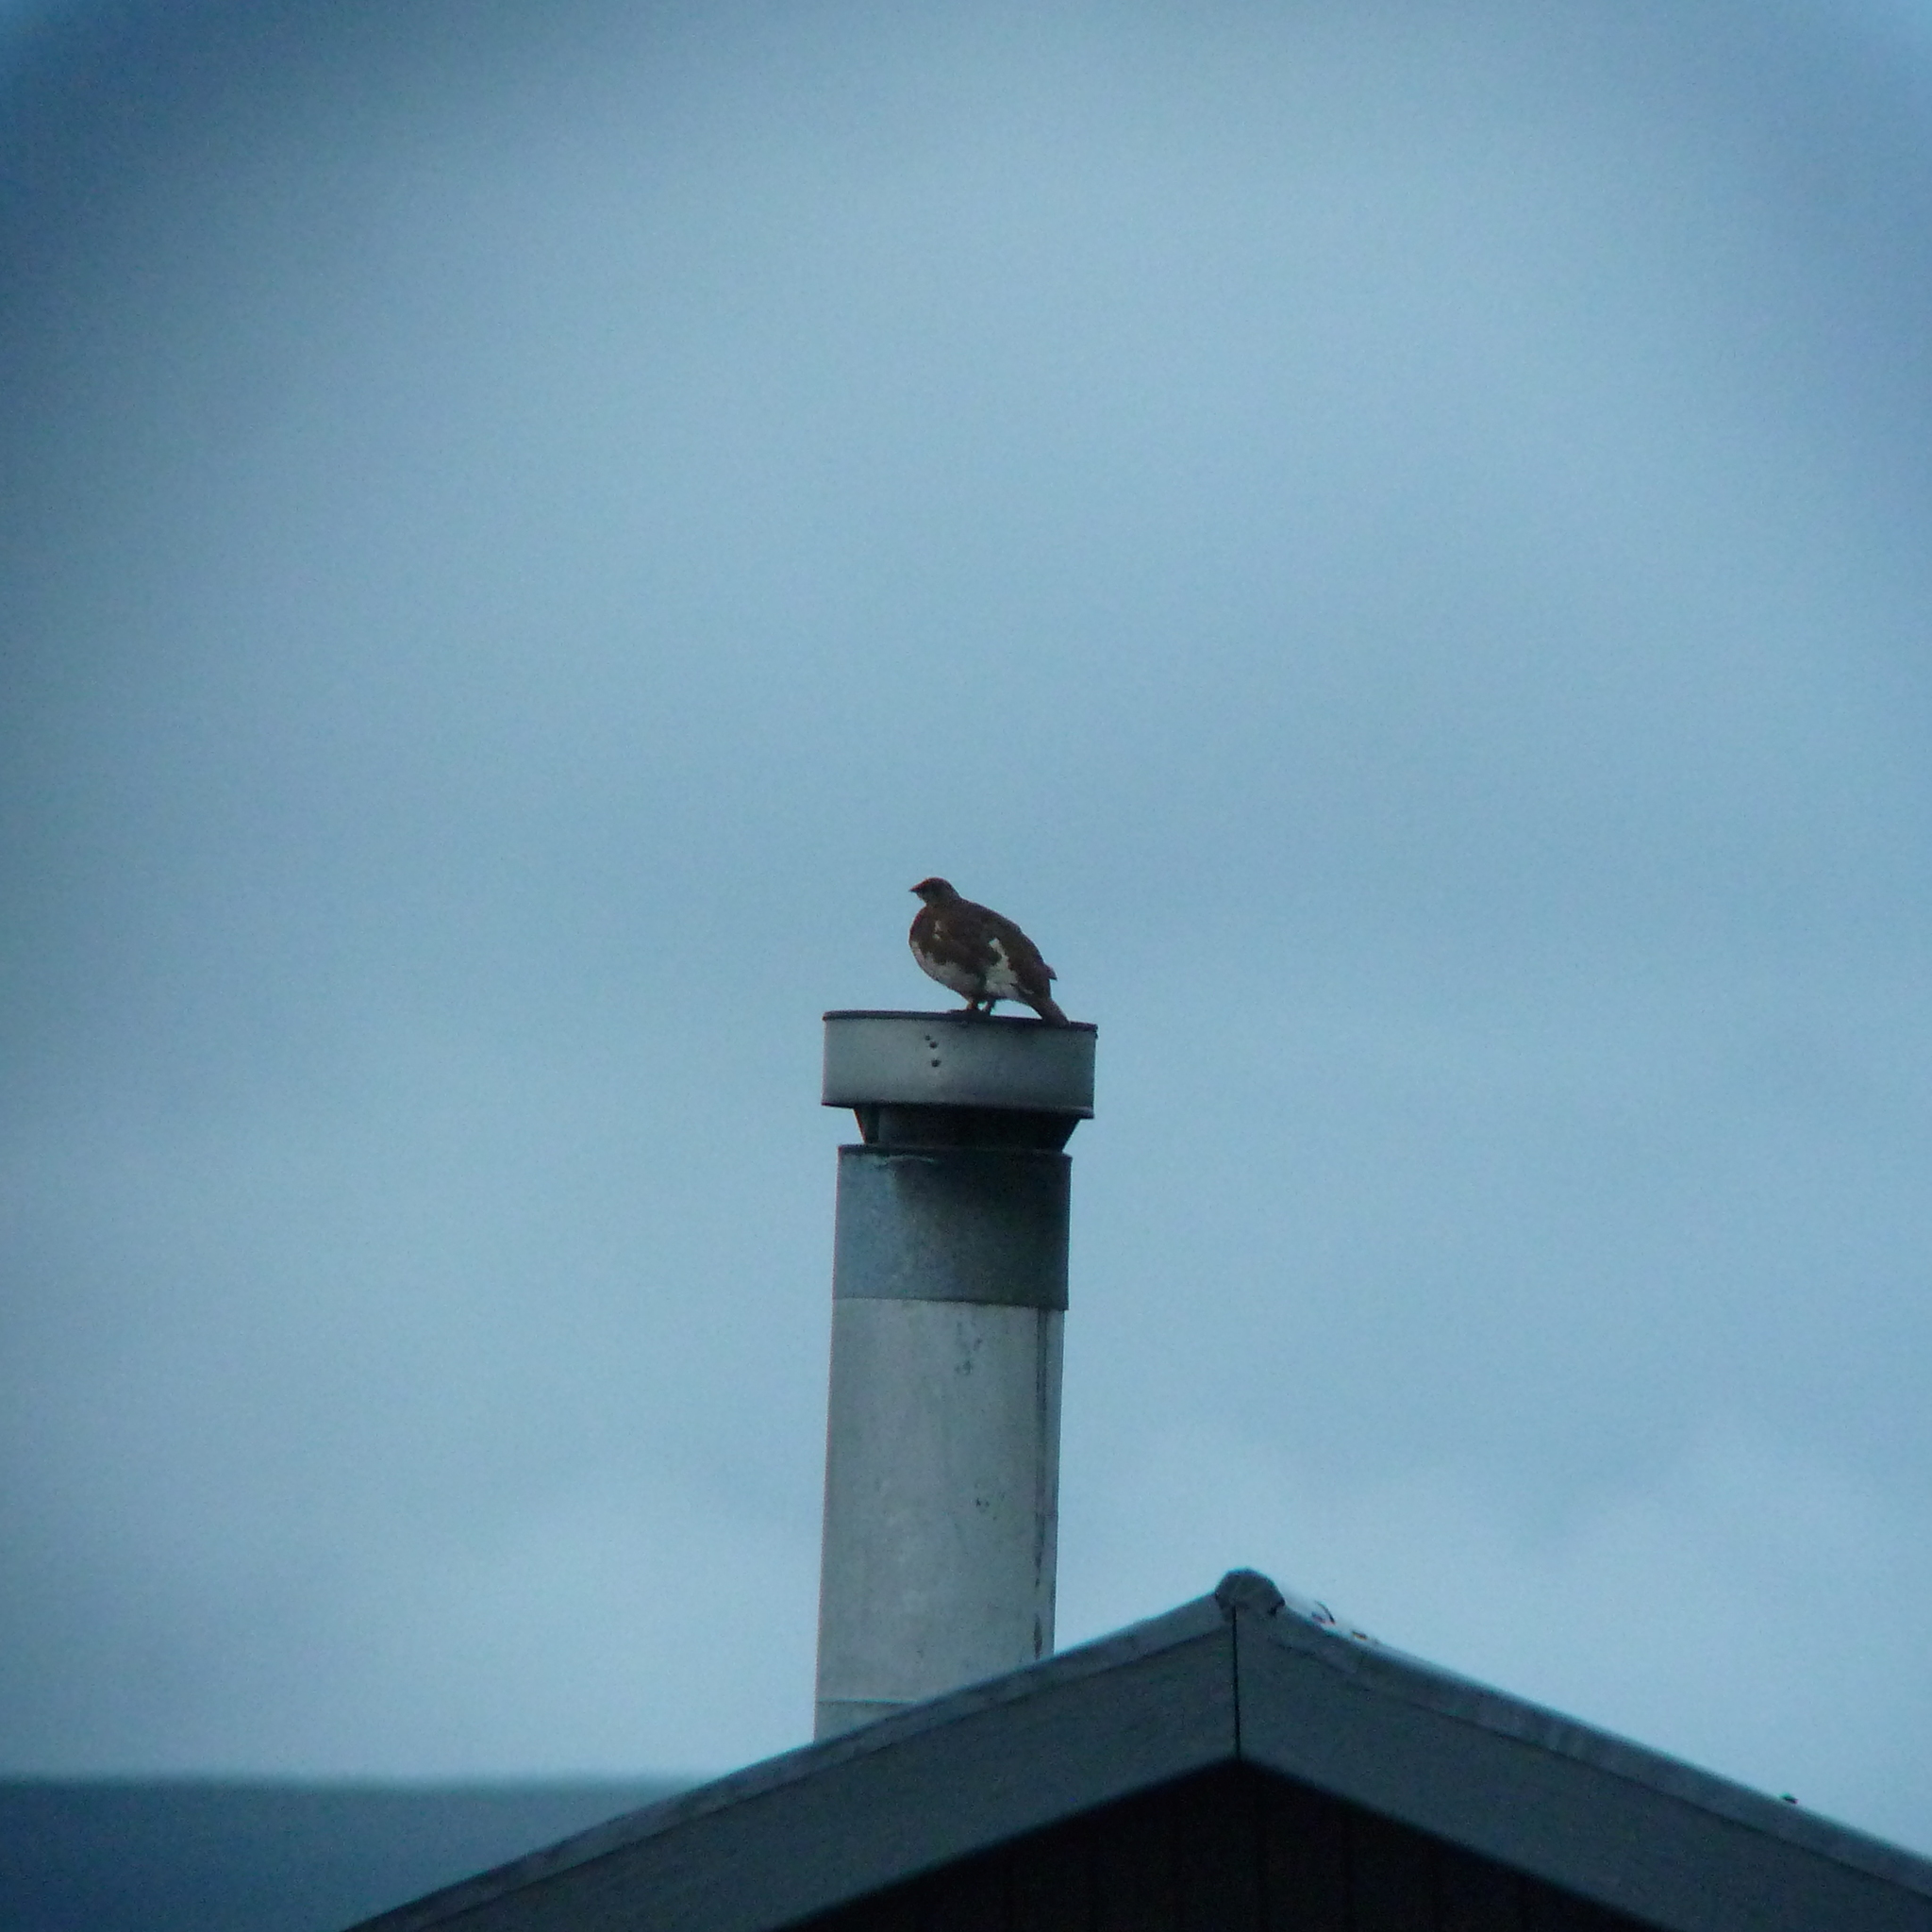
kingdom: Animalia
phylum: Chordata
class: Aves
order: Galliformes
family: Phasianidae
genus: Lagopus
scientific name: Lagopus muta
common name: Rock ptarmigan
